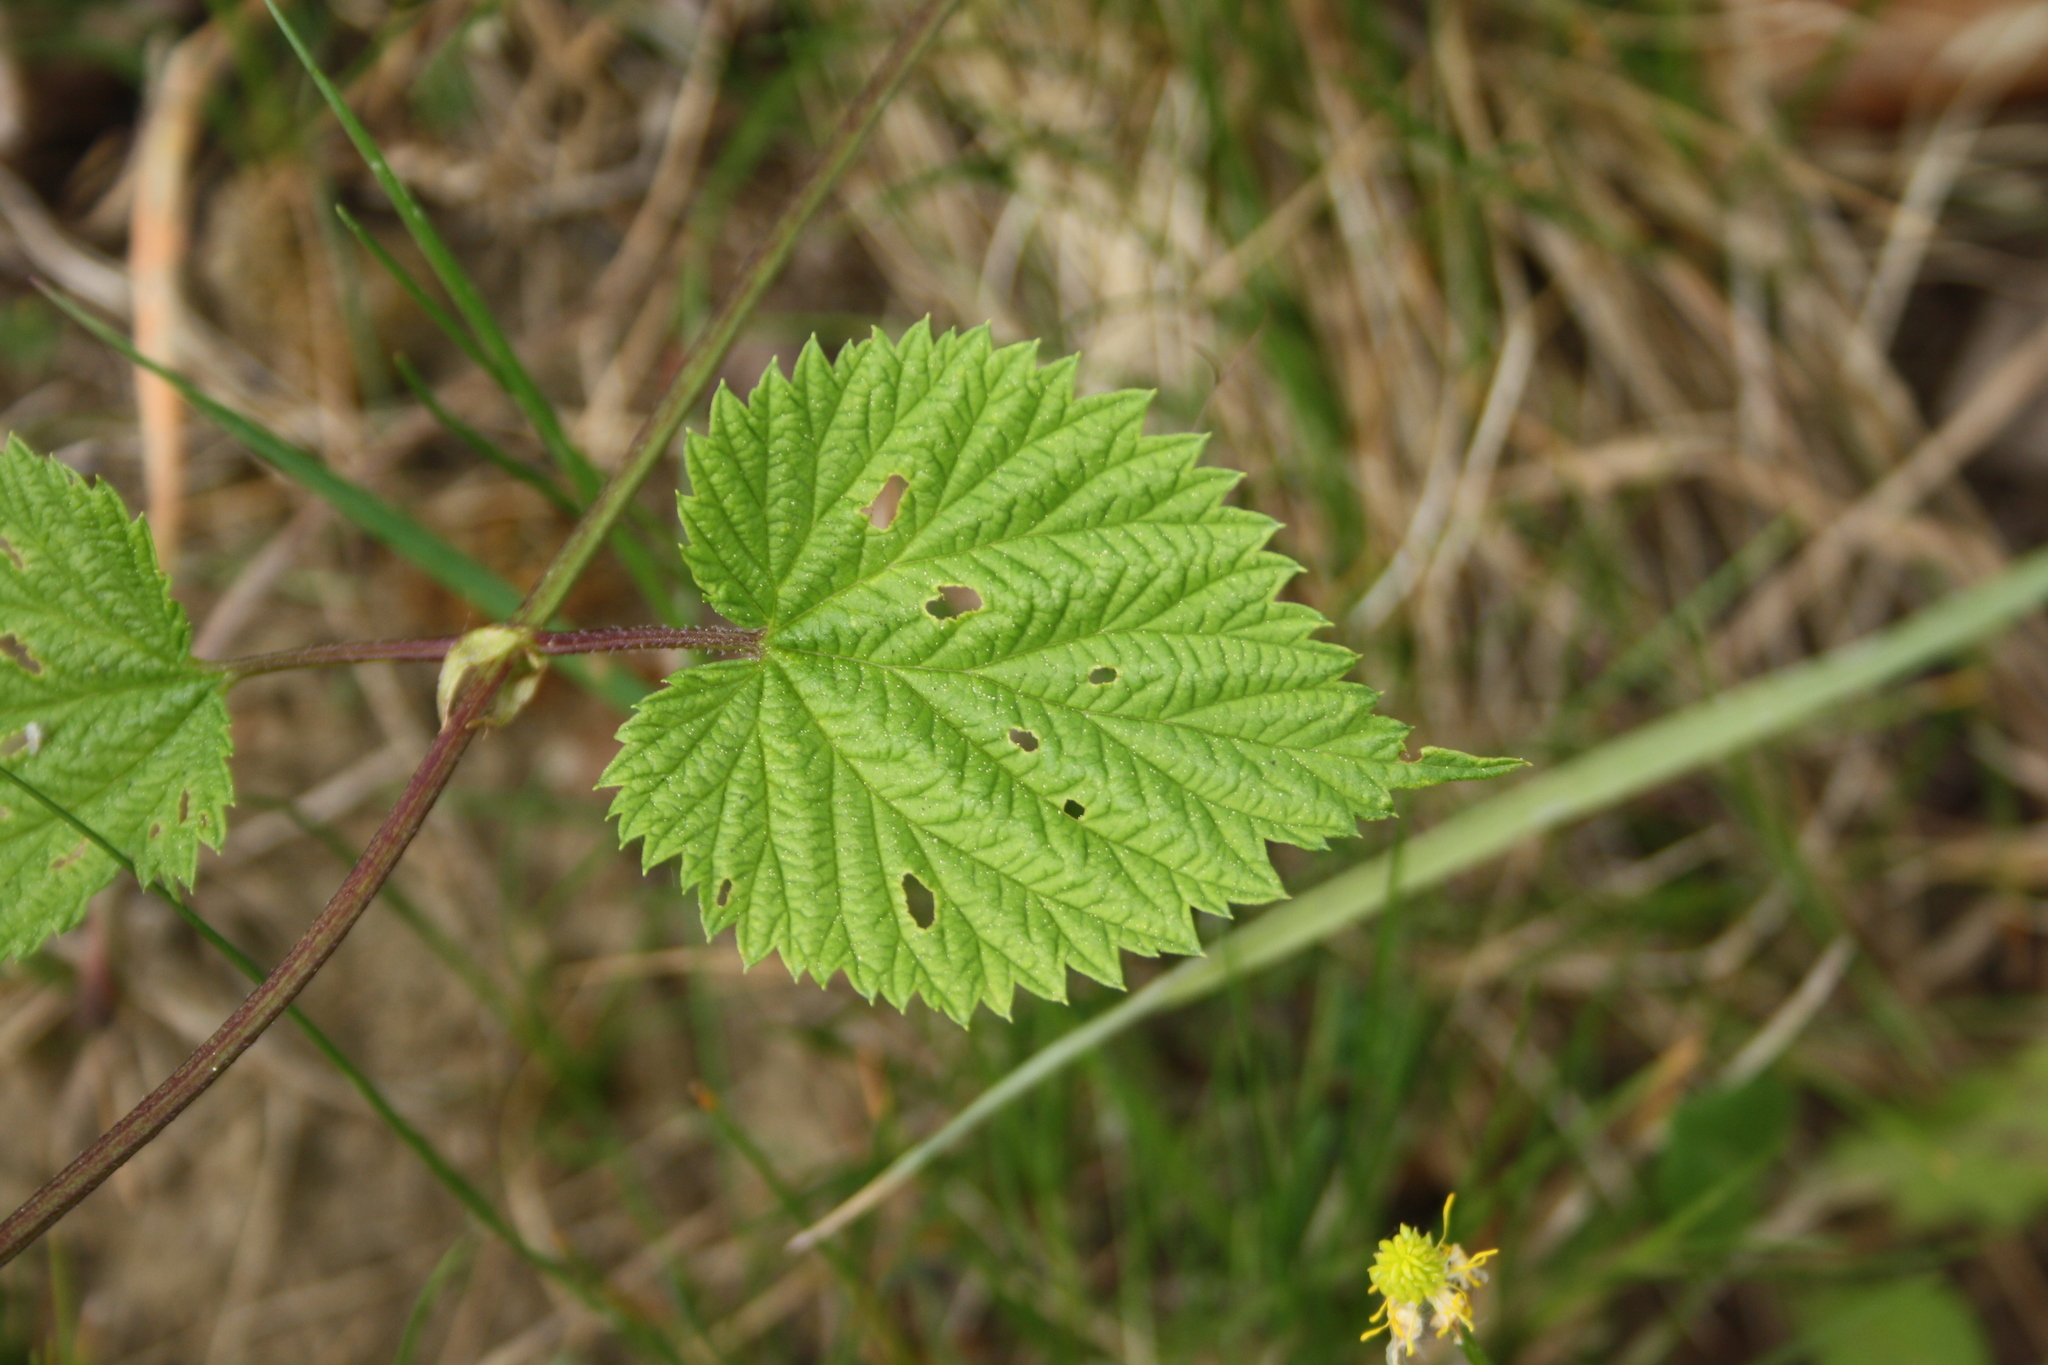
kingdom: Plantae
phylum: Tracheophyta
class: Magnoliopsida
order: Rosales
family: Cannabaceae
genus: Humulus
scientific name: Humulus lupulus
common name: Hop
